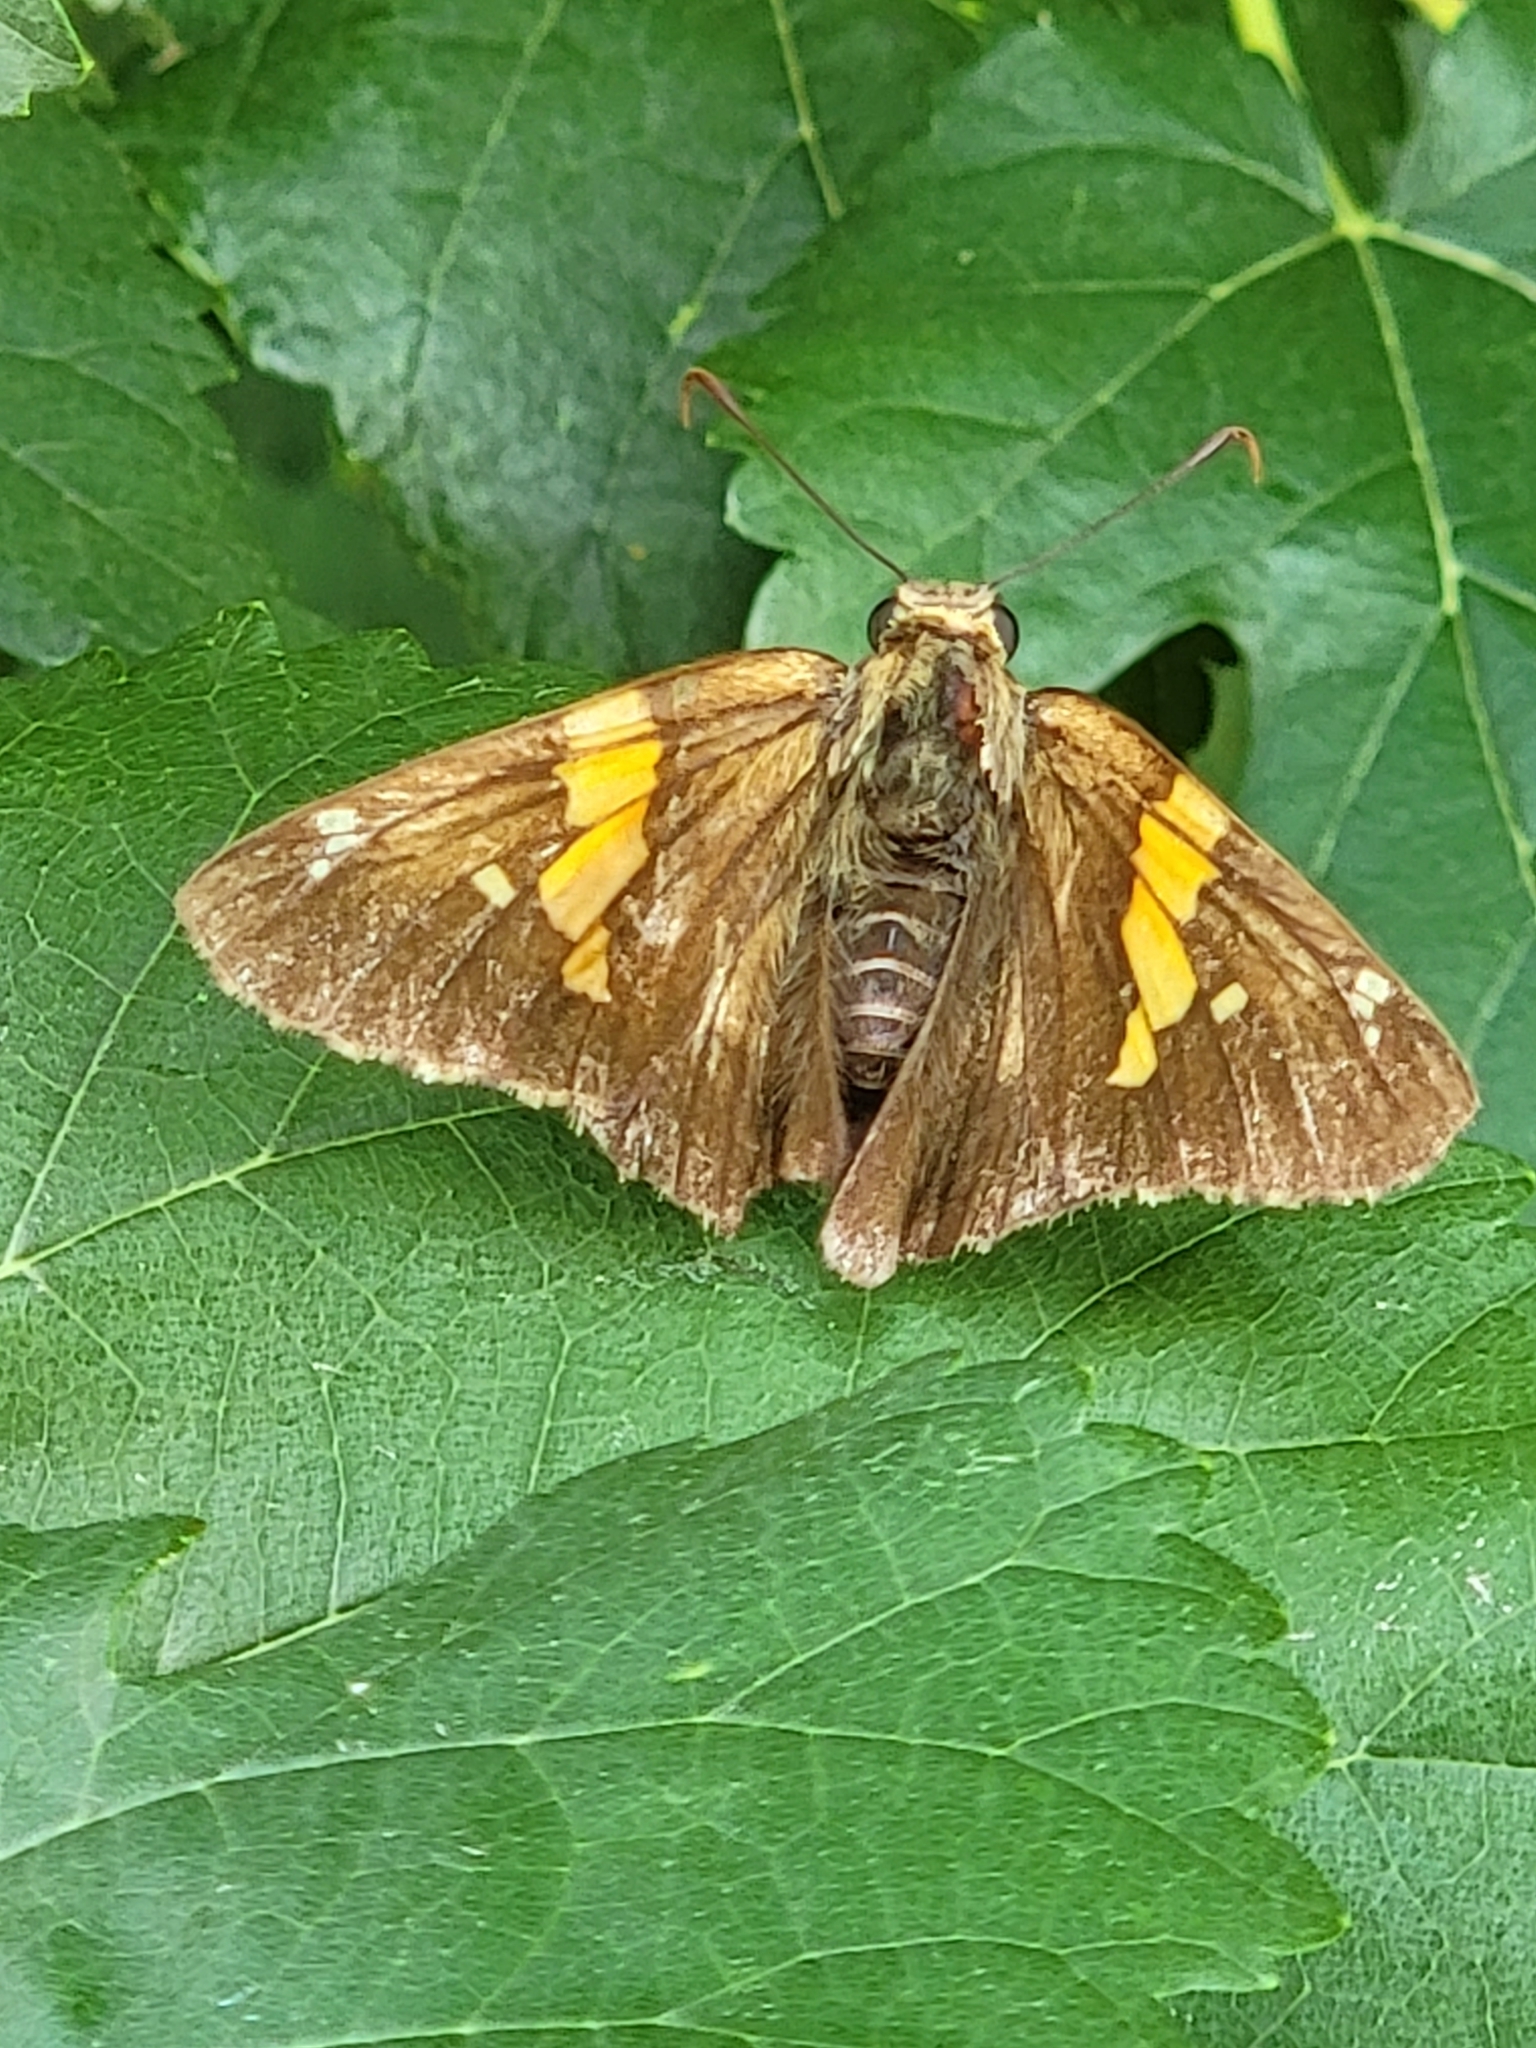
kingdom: Animalia
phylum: Arthropoda
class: Insecta
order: Lepidoptera
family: Hesperiidae
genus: Epargyreus
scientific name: Epargyreus clarus
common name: Silver-spotted skipper
